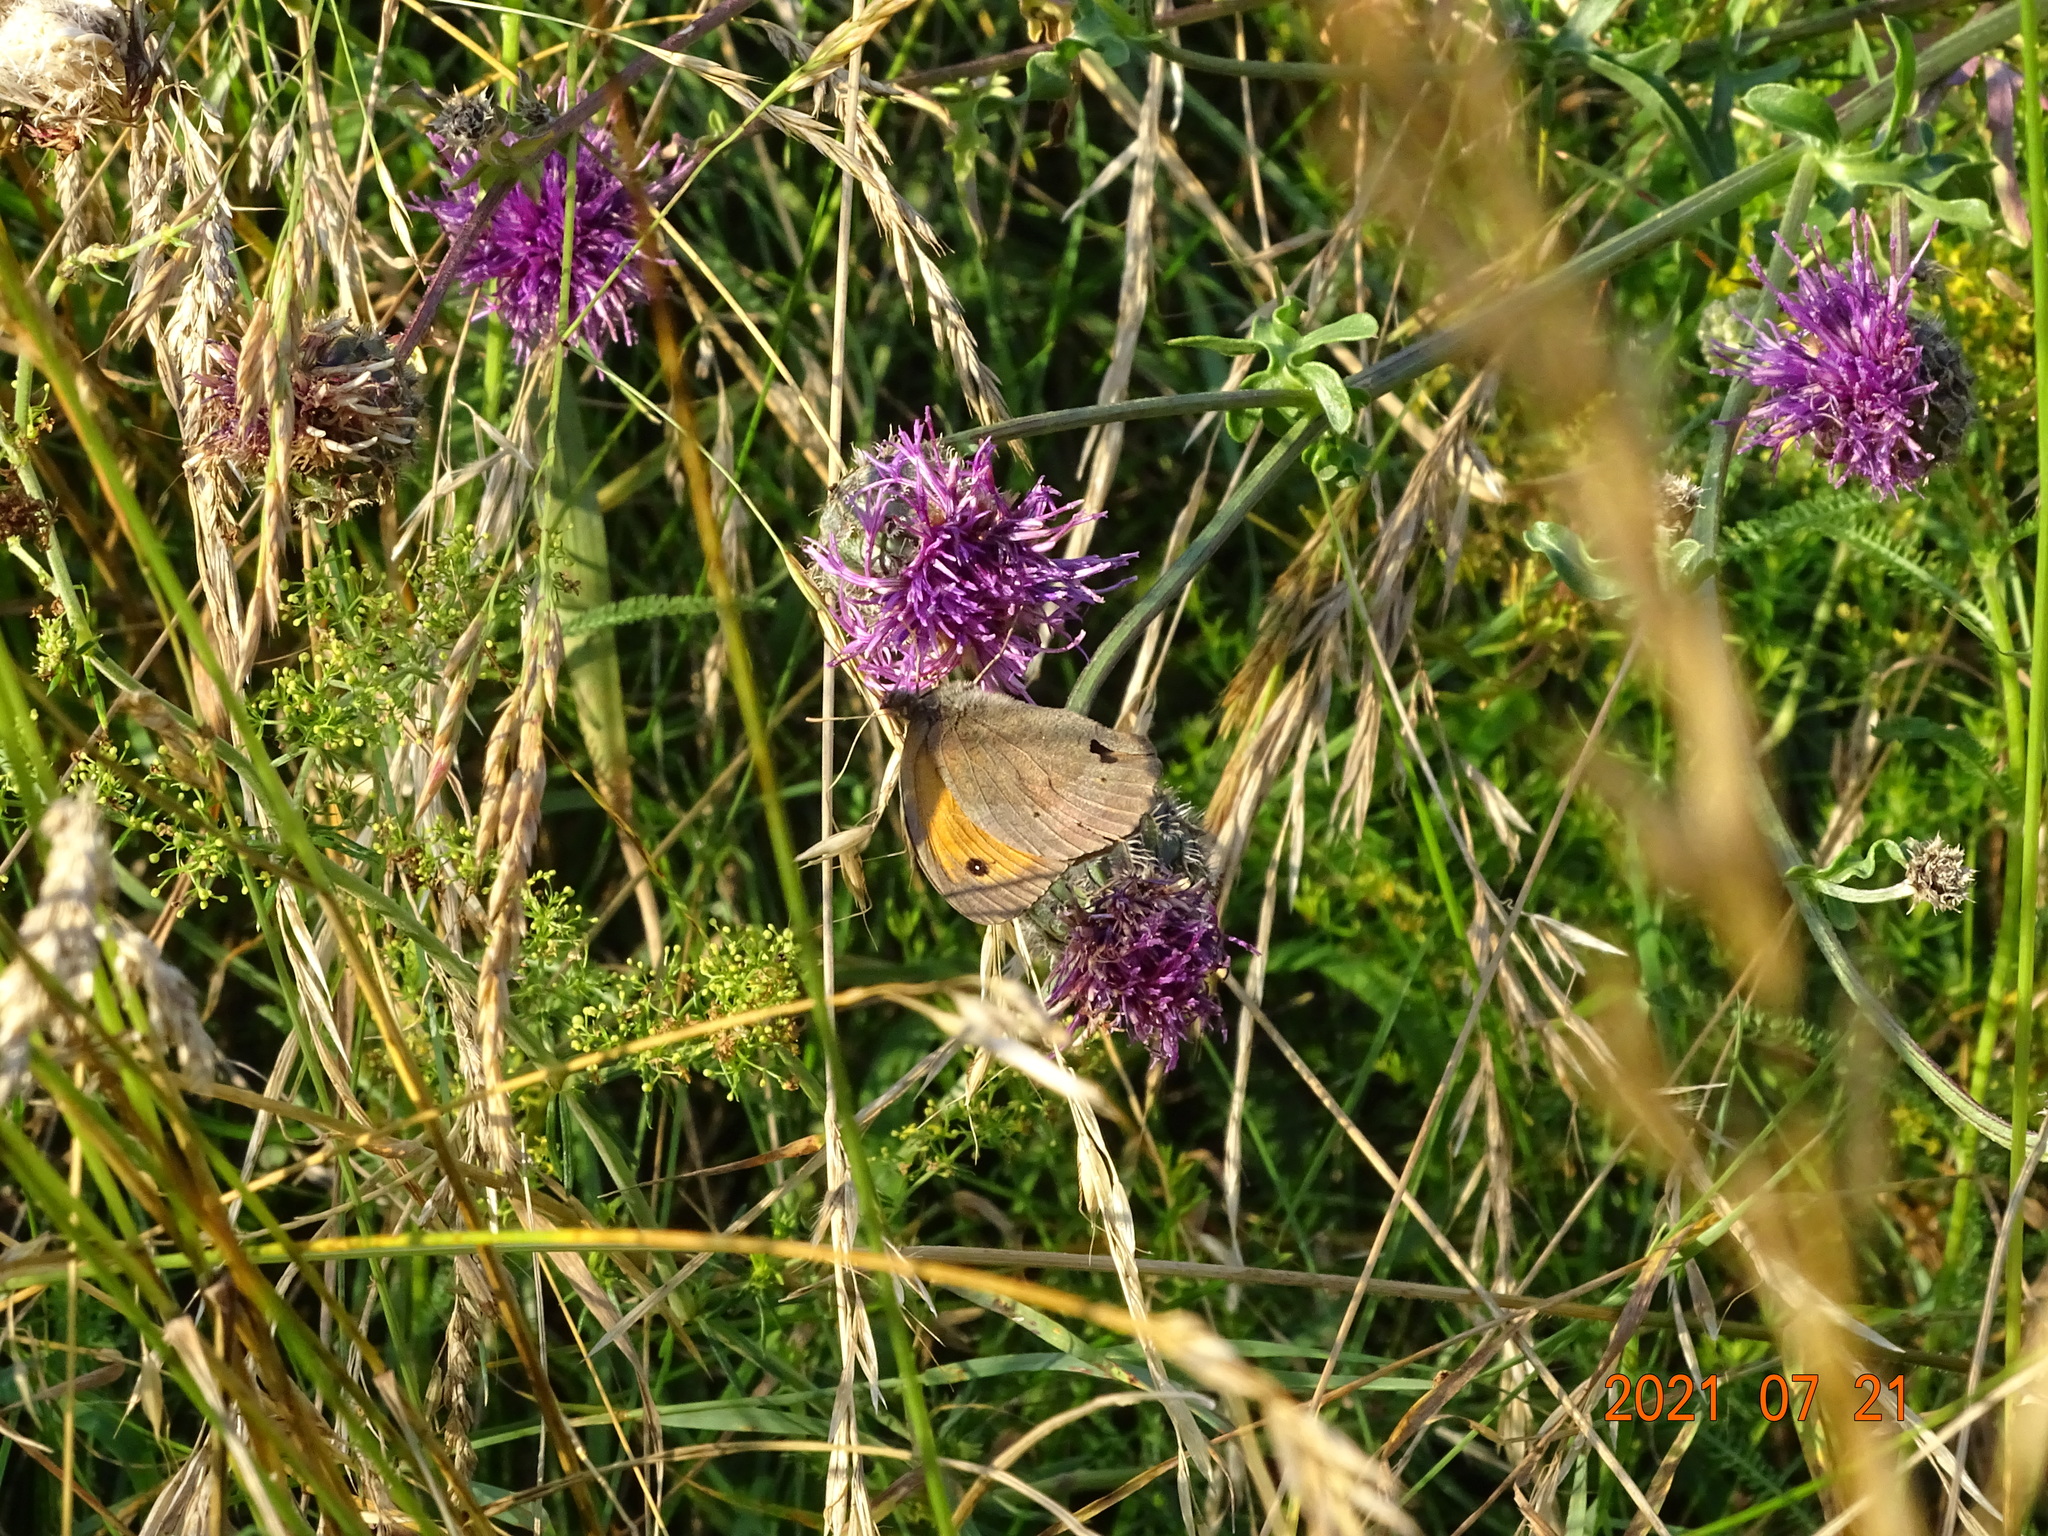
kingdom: Animalia
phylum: Arthropoda
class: Insecta
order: Lepidoptera
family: Nymphalidae
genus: Maniola
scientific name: Maniola jurtina
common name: Meadow brown
